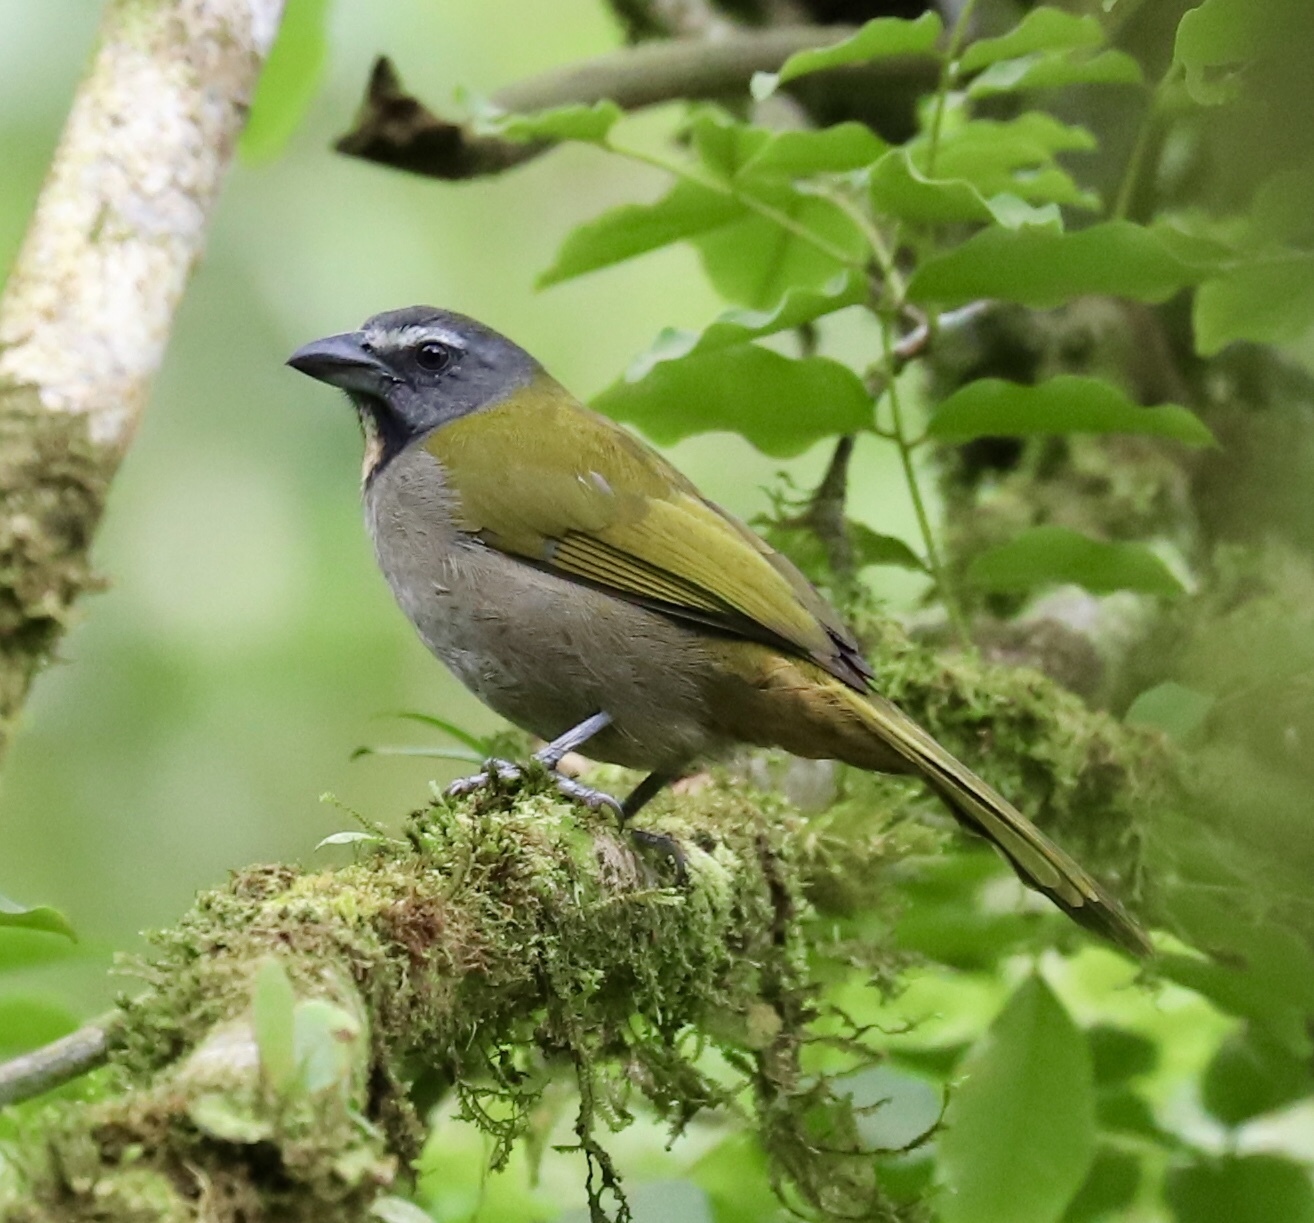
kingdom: Animalia
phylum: Chordata
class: Aves
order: Passeriformes
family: Thraupidae
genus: Saltator
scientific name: Saltator maximus
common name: Buff-throated saltator
